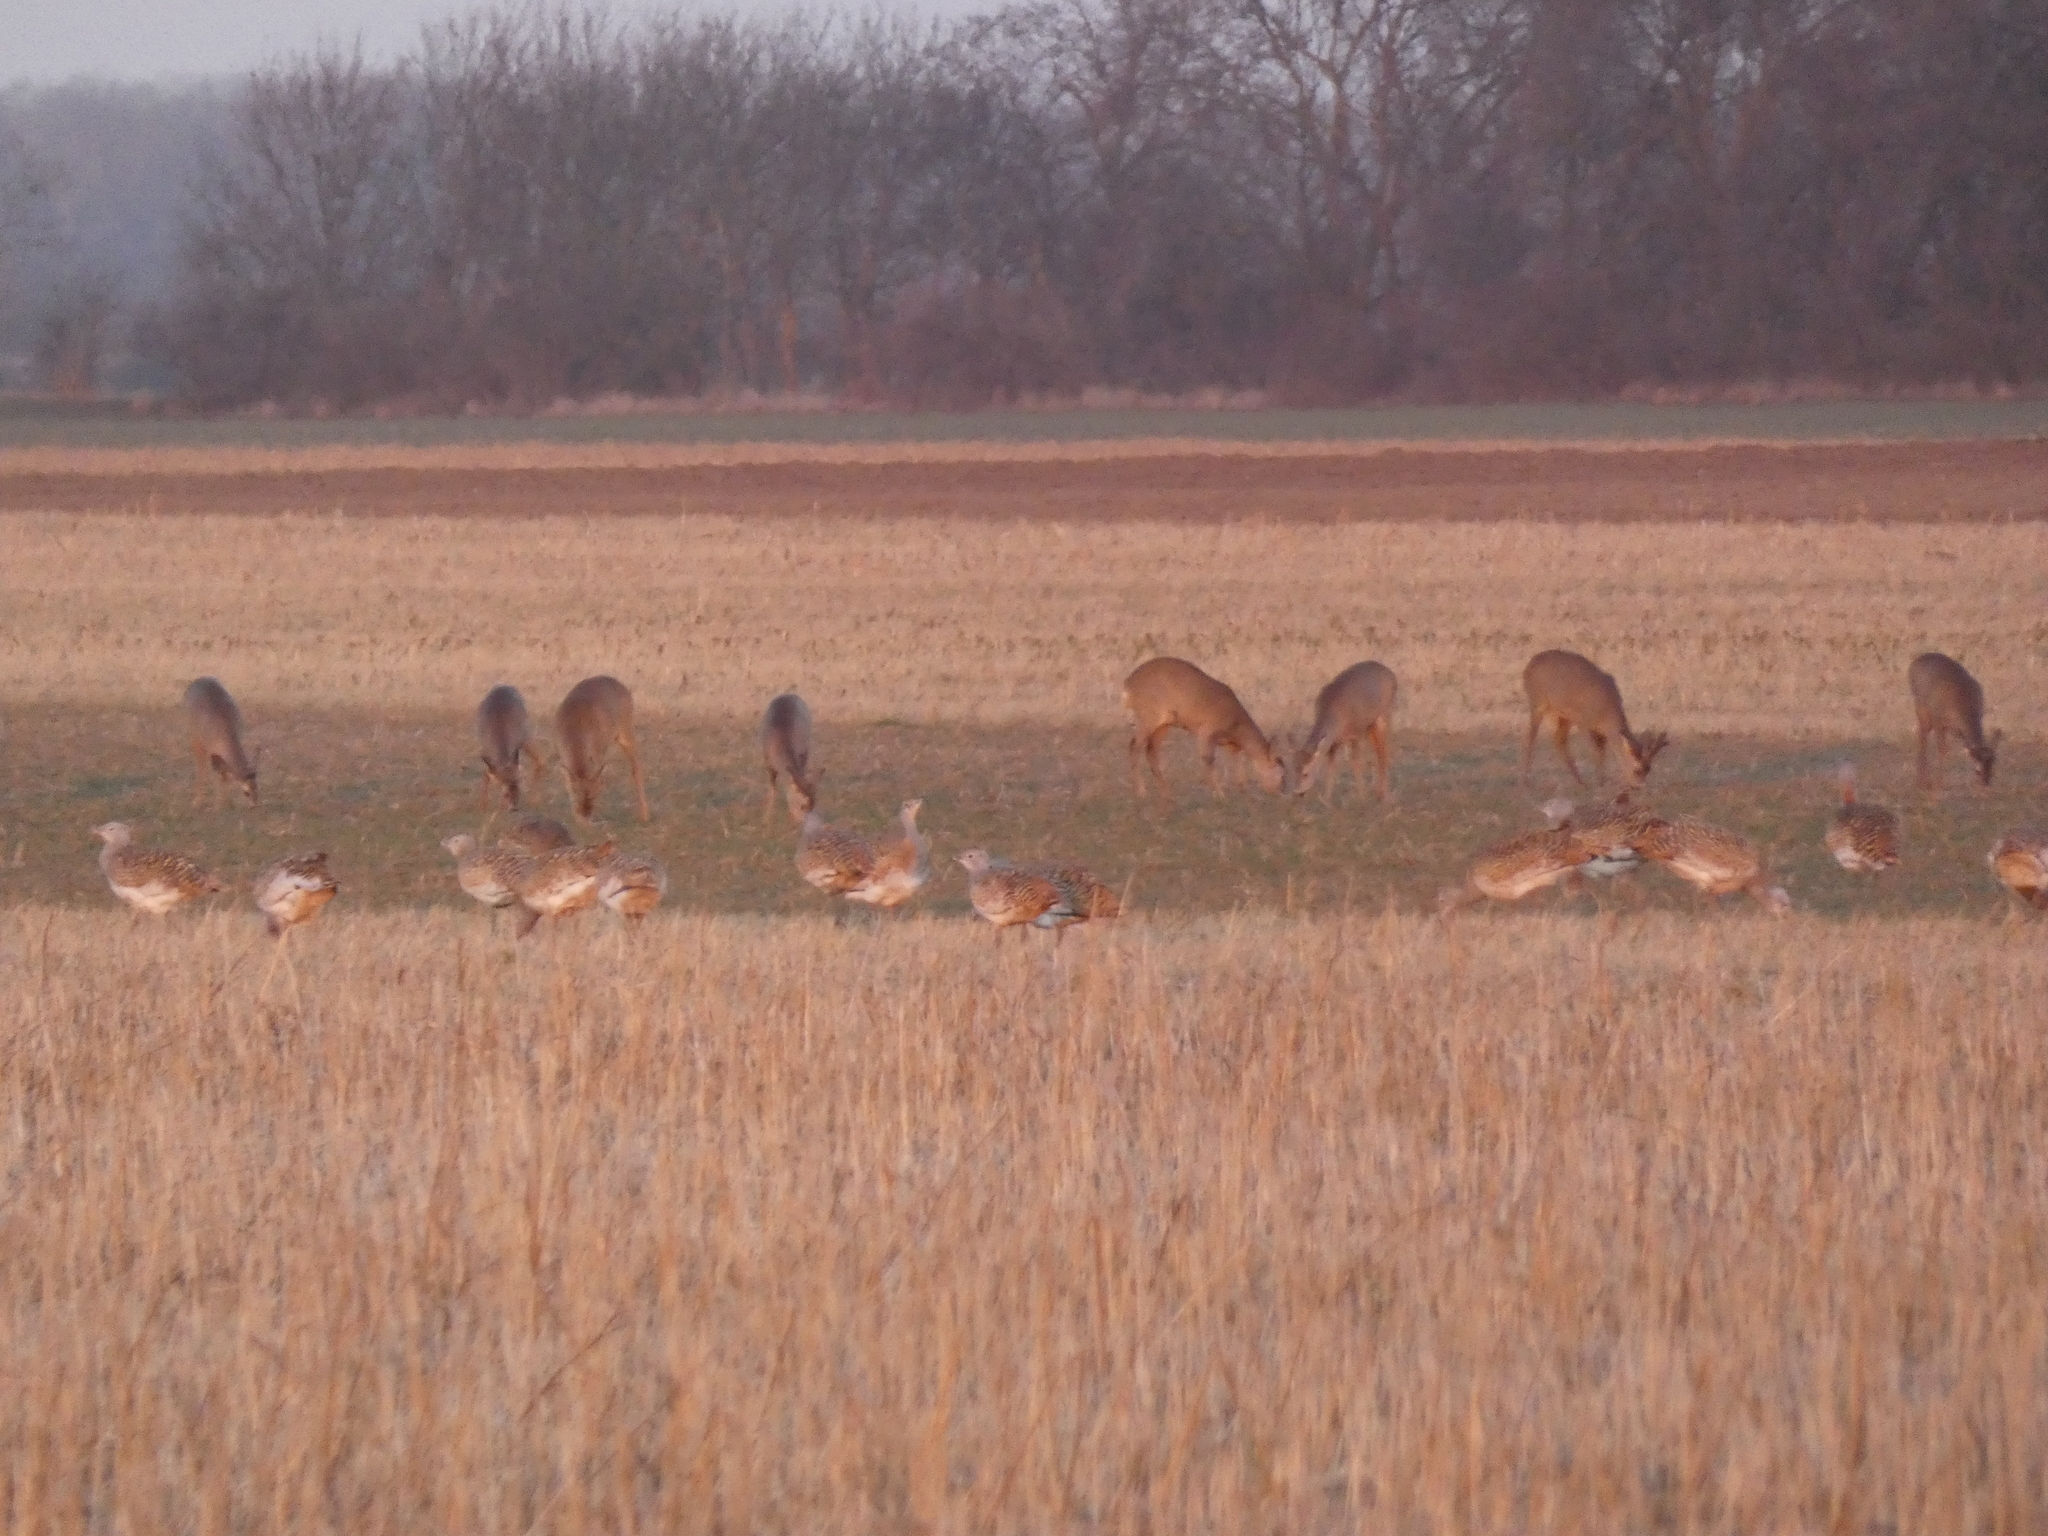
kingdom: Animalia
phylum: Chordata
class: Aves
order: Otidiformes
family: Otididae
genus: Otis
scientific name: Otis tarda
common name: Great bustard
